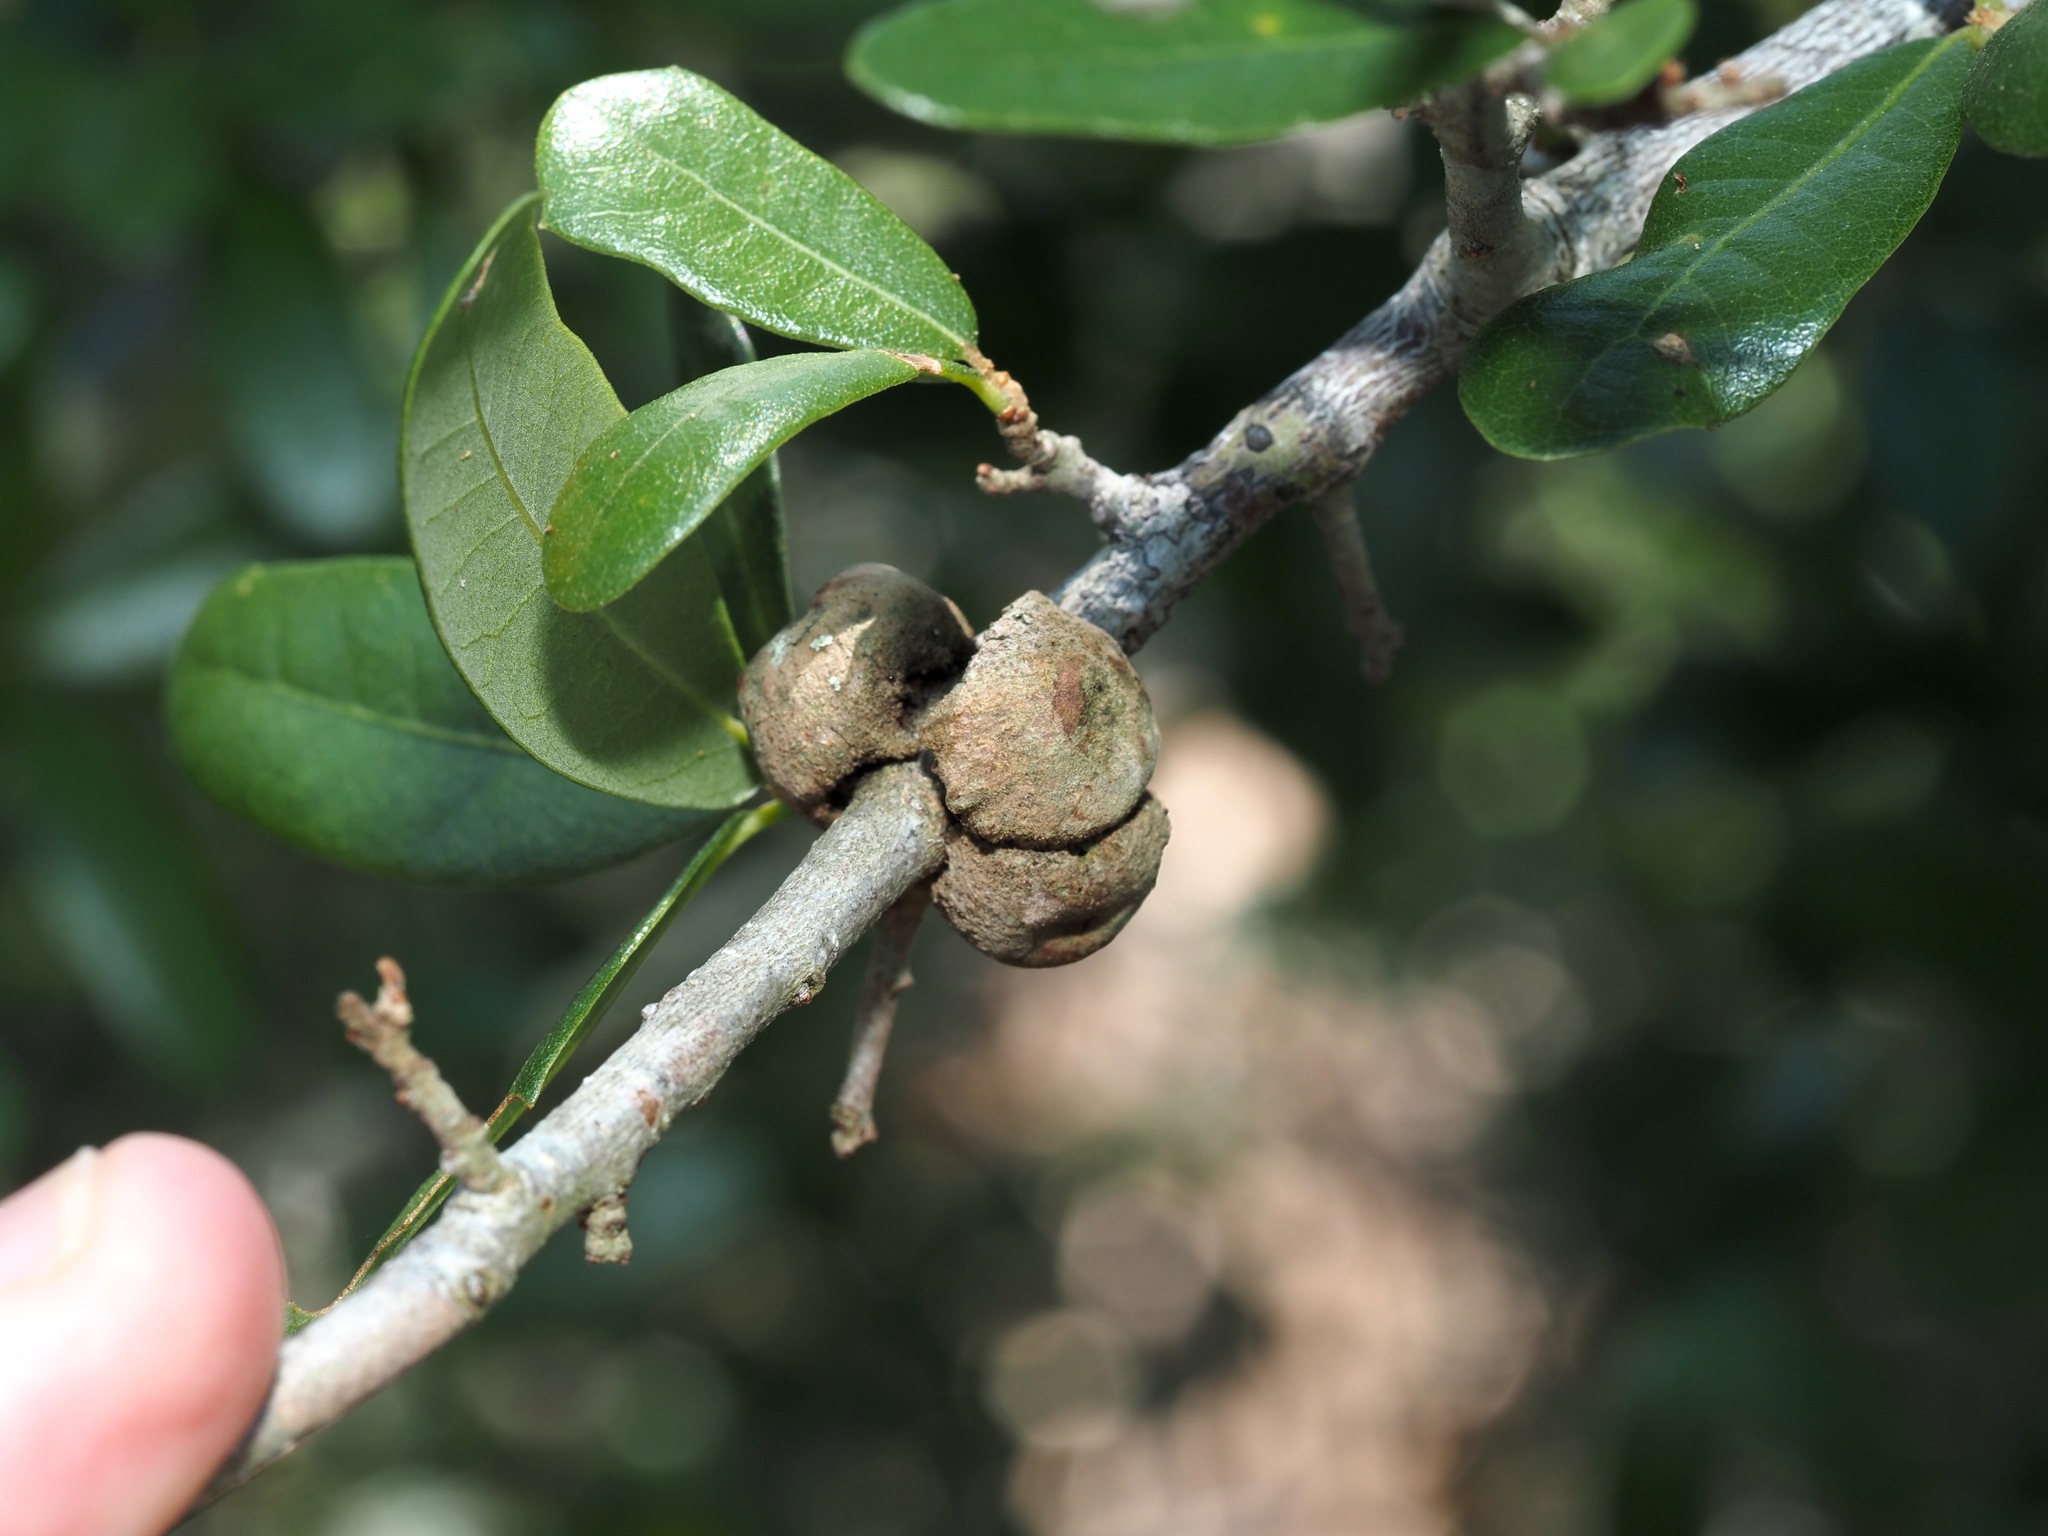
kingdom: Animalia
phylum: Arthropoda
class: Insecta
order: Hymenoptera
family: Cynipidae
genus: Disholcaspis
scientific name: Disholcaspis
